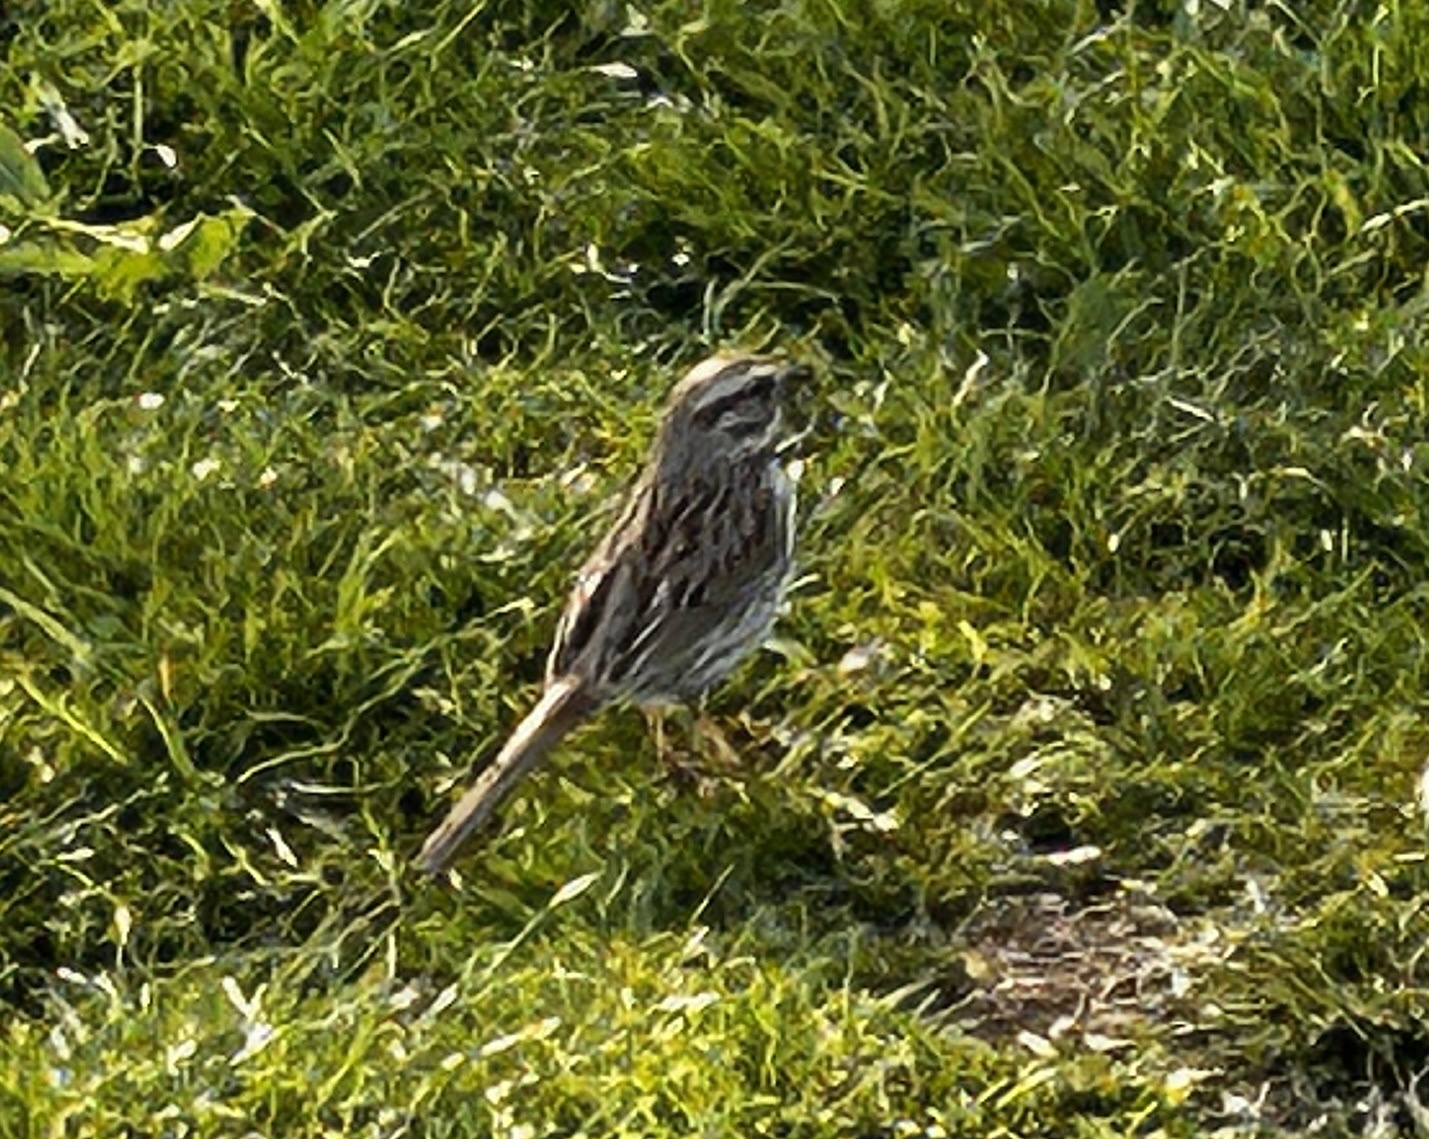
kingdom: Animalia
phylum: Chordata
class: Aves
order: Passeriformes
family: Passerellidae
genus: Melospiza
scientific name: Melospiza melodia
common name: Song sparrow
